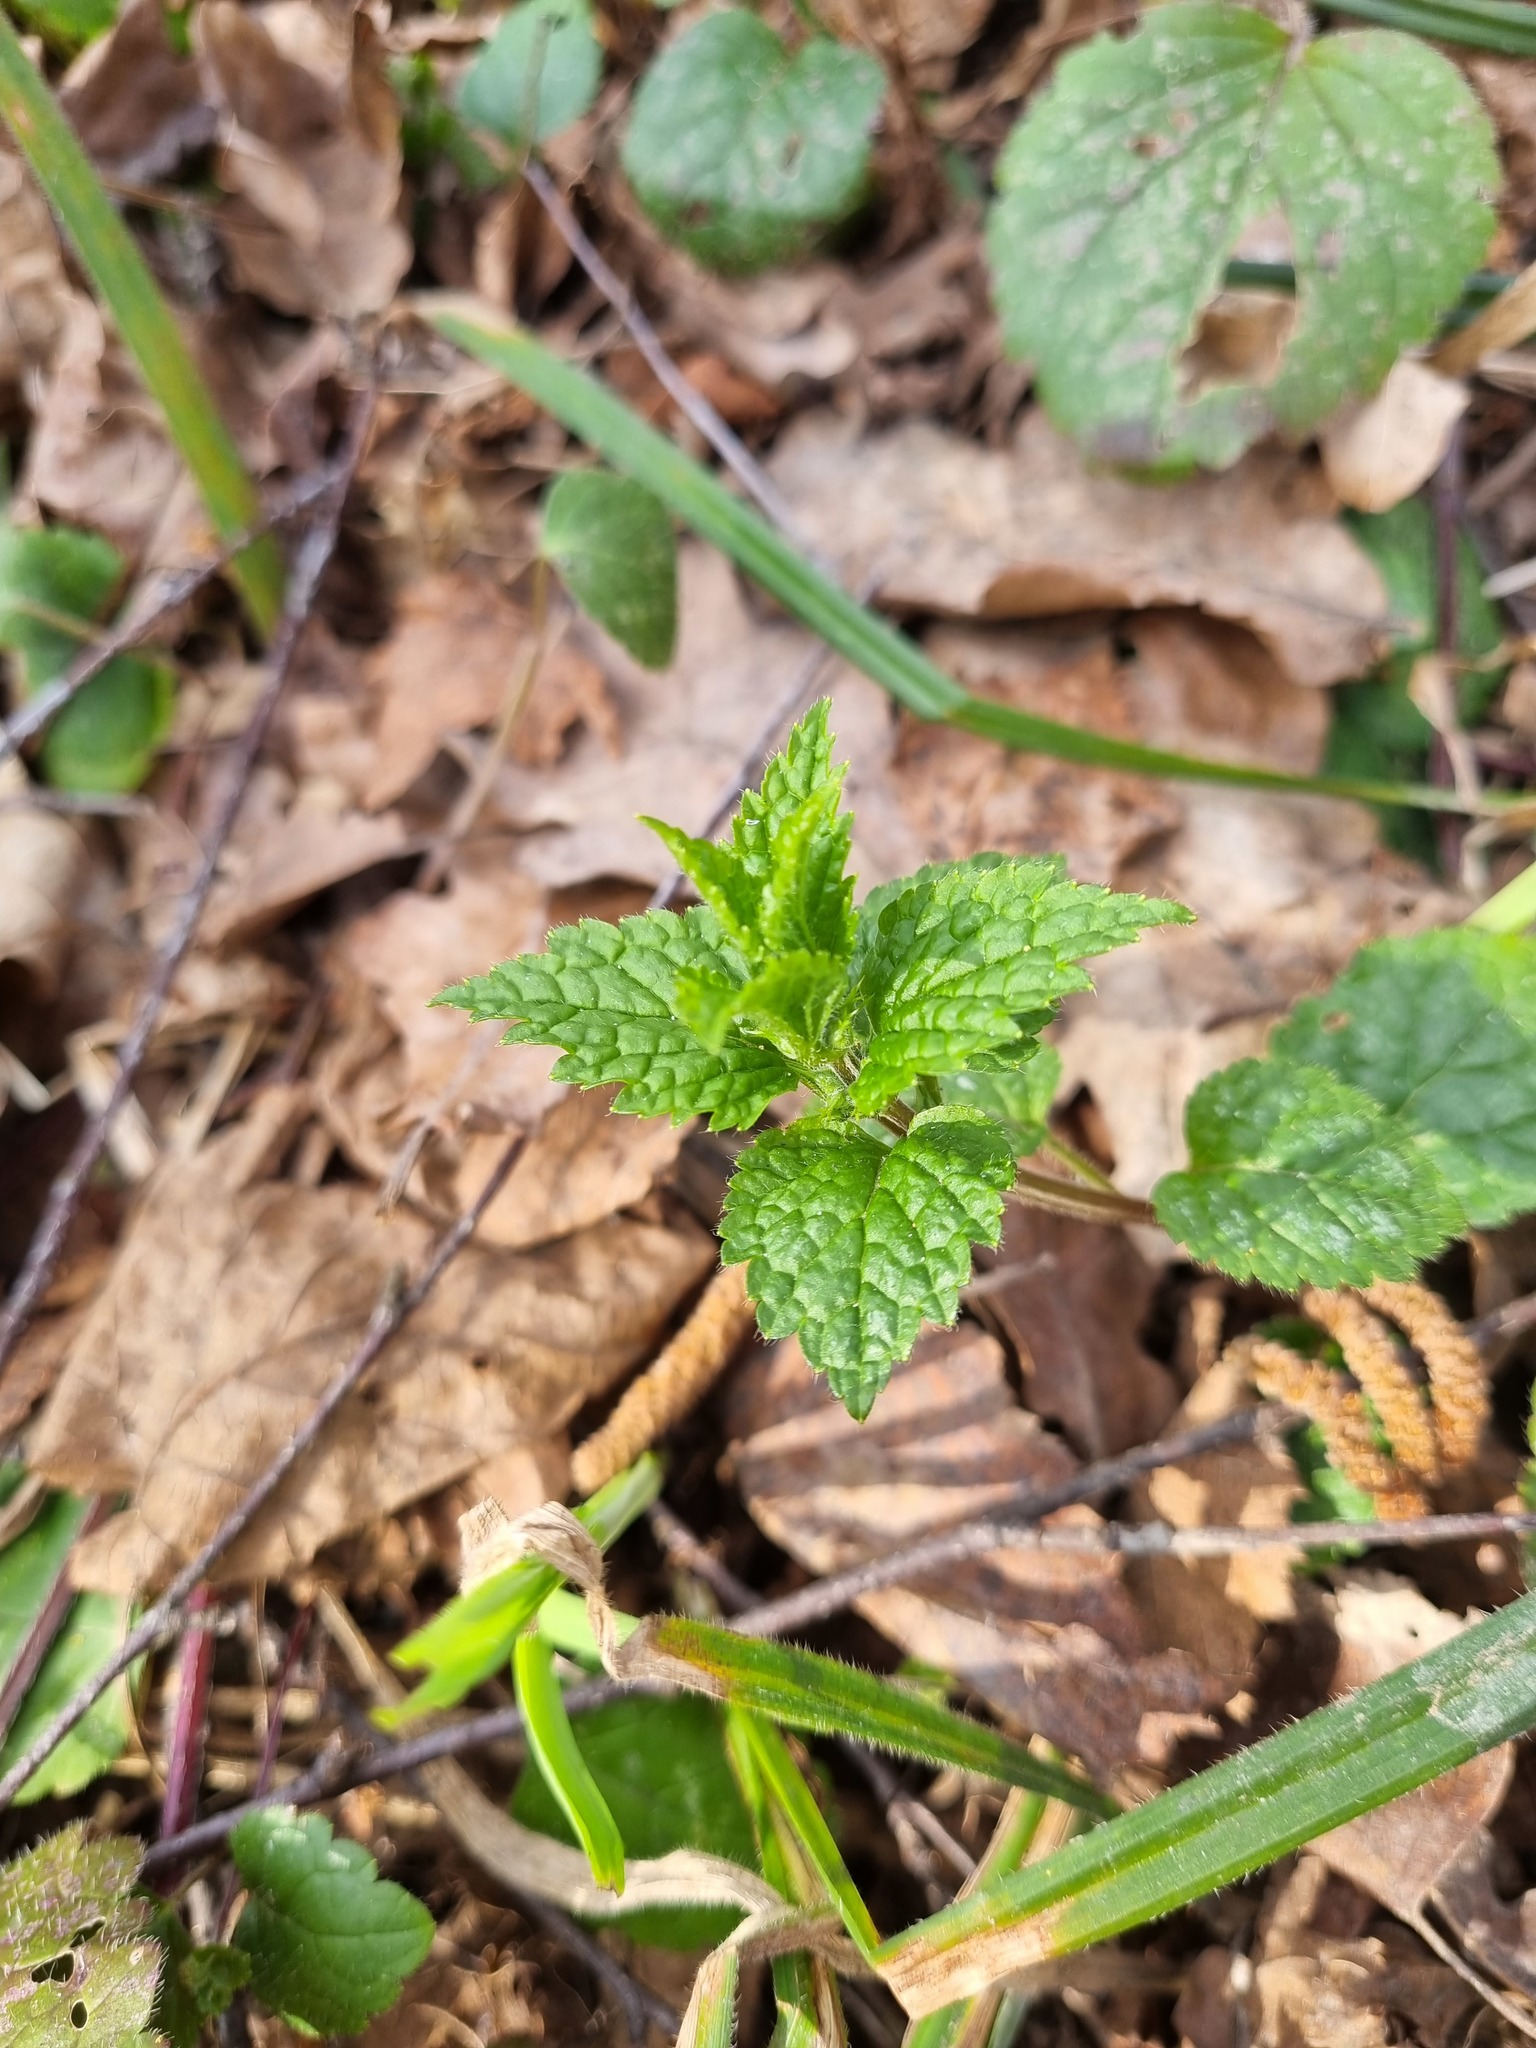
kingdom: Plantae
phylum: Tracheophyta
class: Magnoliopsida
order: Lamiales
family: Lamiaceae
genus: Lamium
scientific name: Lamium galeobdolon
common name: Yellow archangel
